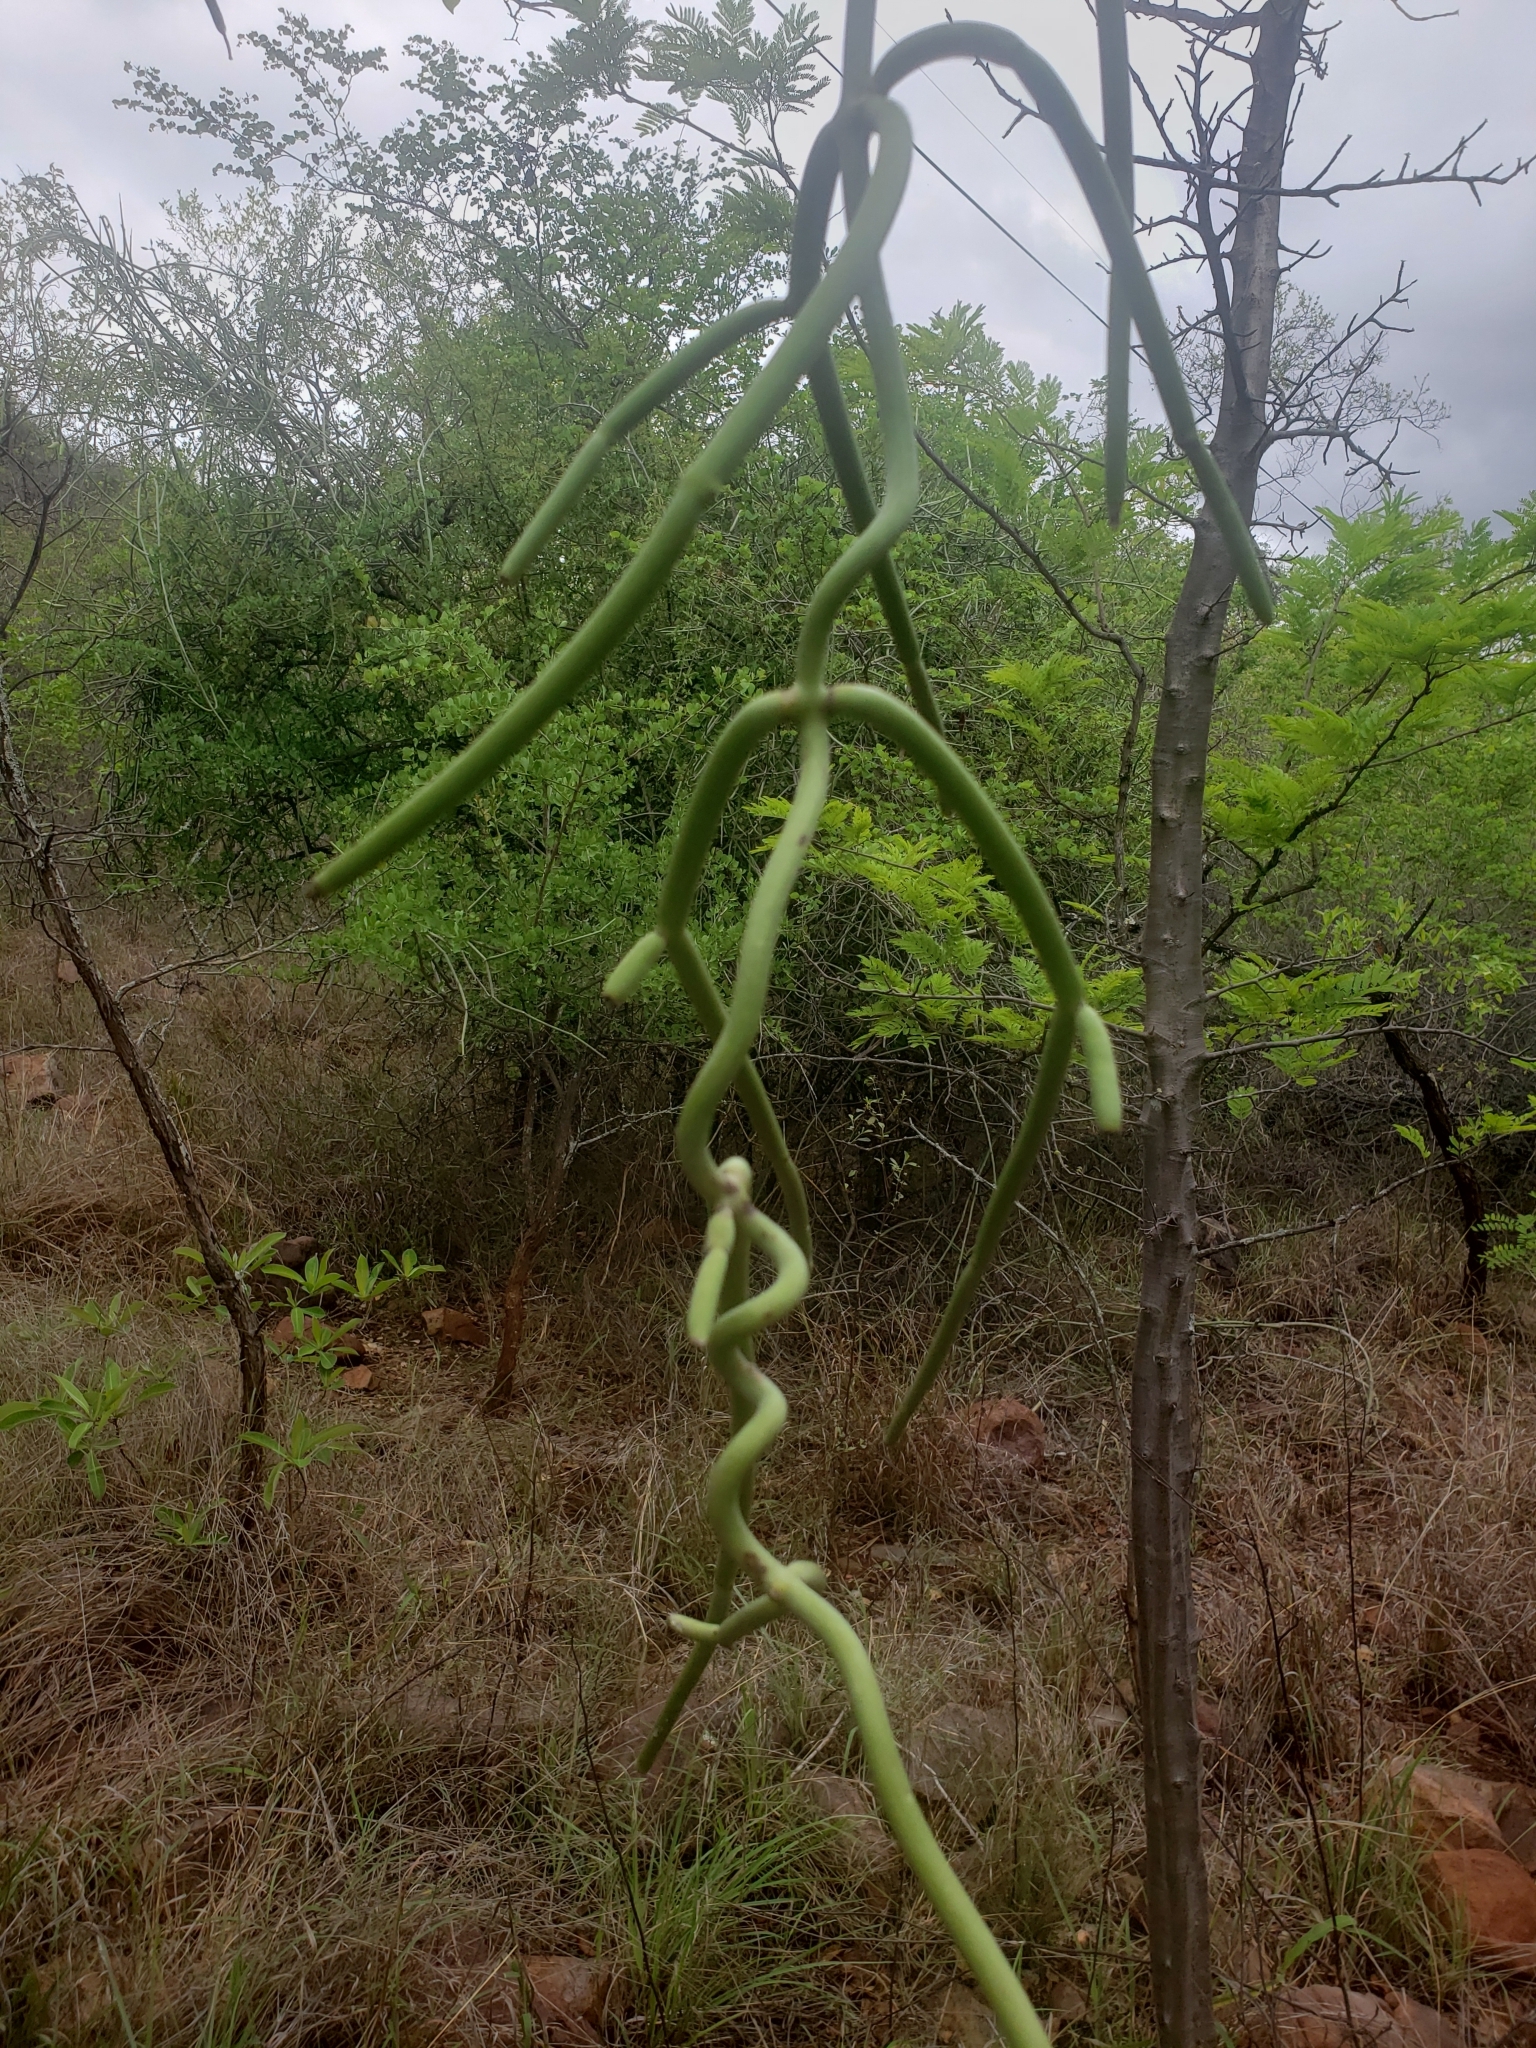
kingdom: Plantae
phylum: Tracheophyta
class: Magnoliopsida
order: Gentianales
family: Apocynaceae
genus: Cynanchum
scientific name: Cynanchum viminale
